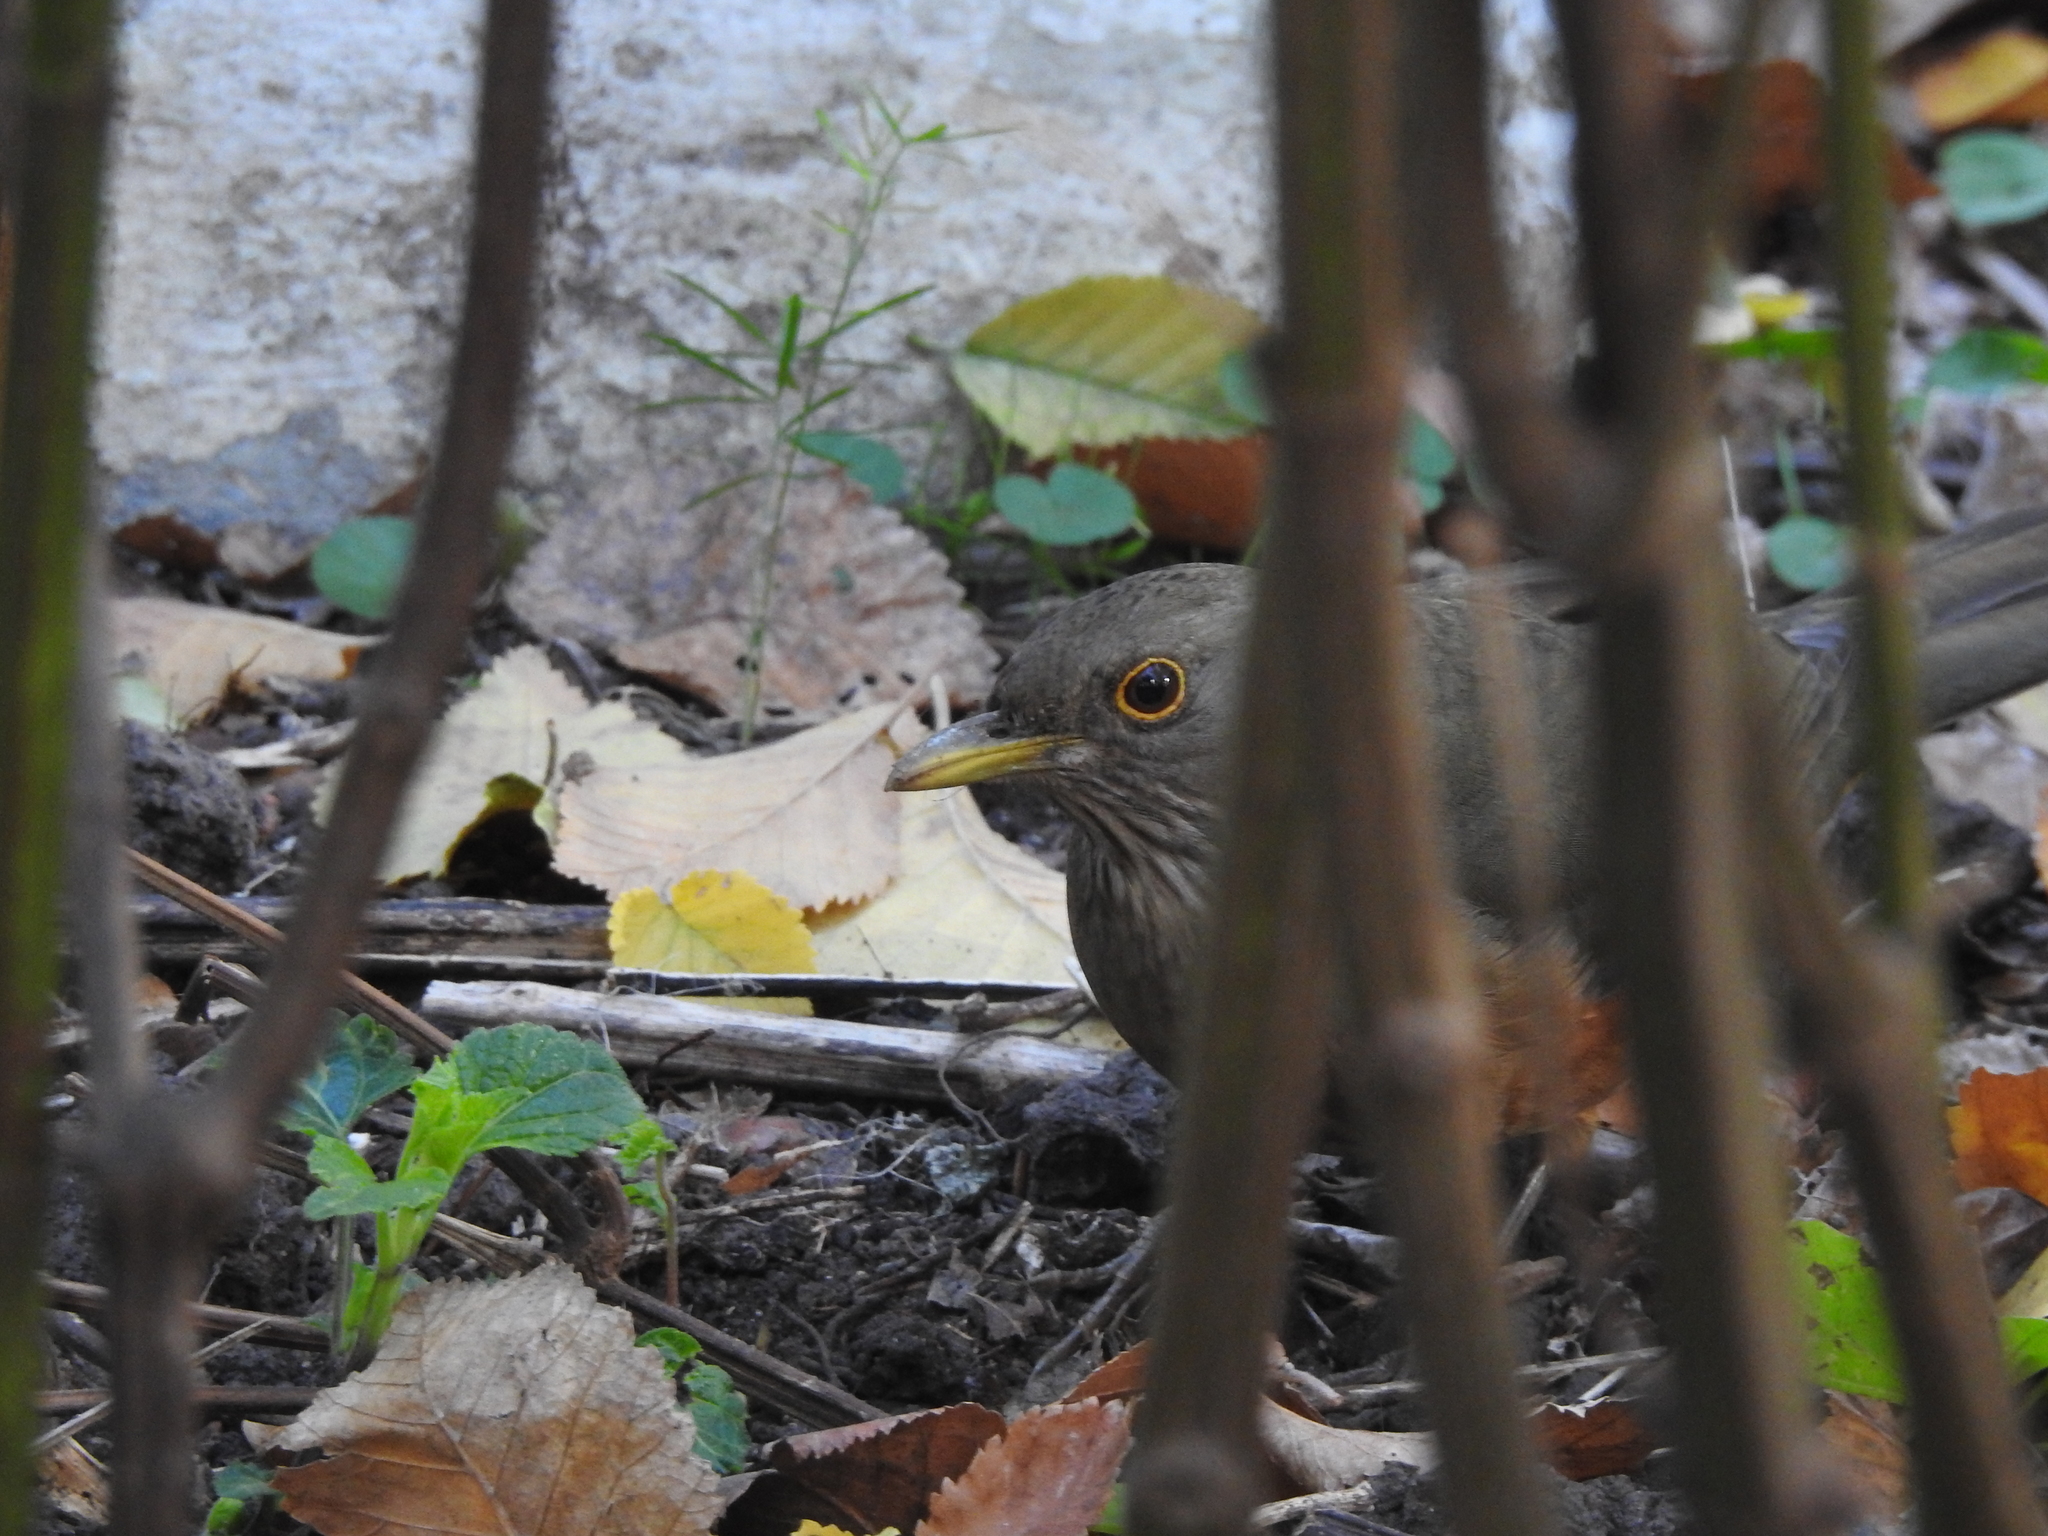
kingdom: Animalia
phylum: Chordata
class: Aves
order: Passeriformes
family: Turdidae
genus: Turdus
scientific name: Turdus rufiventris
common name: Rufous-bellied thrush
